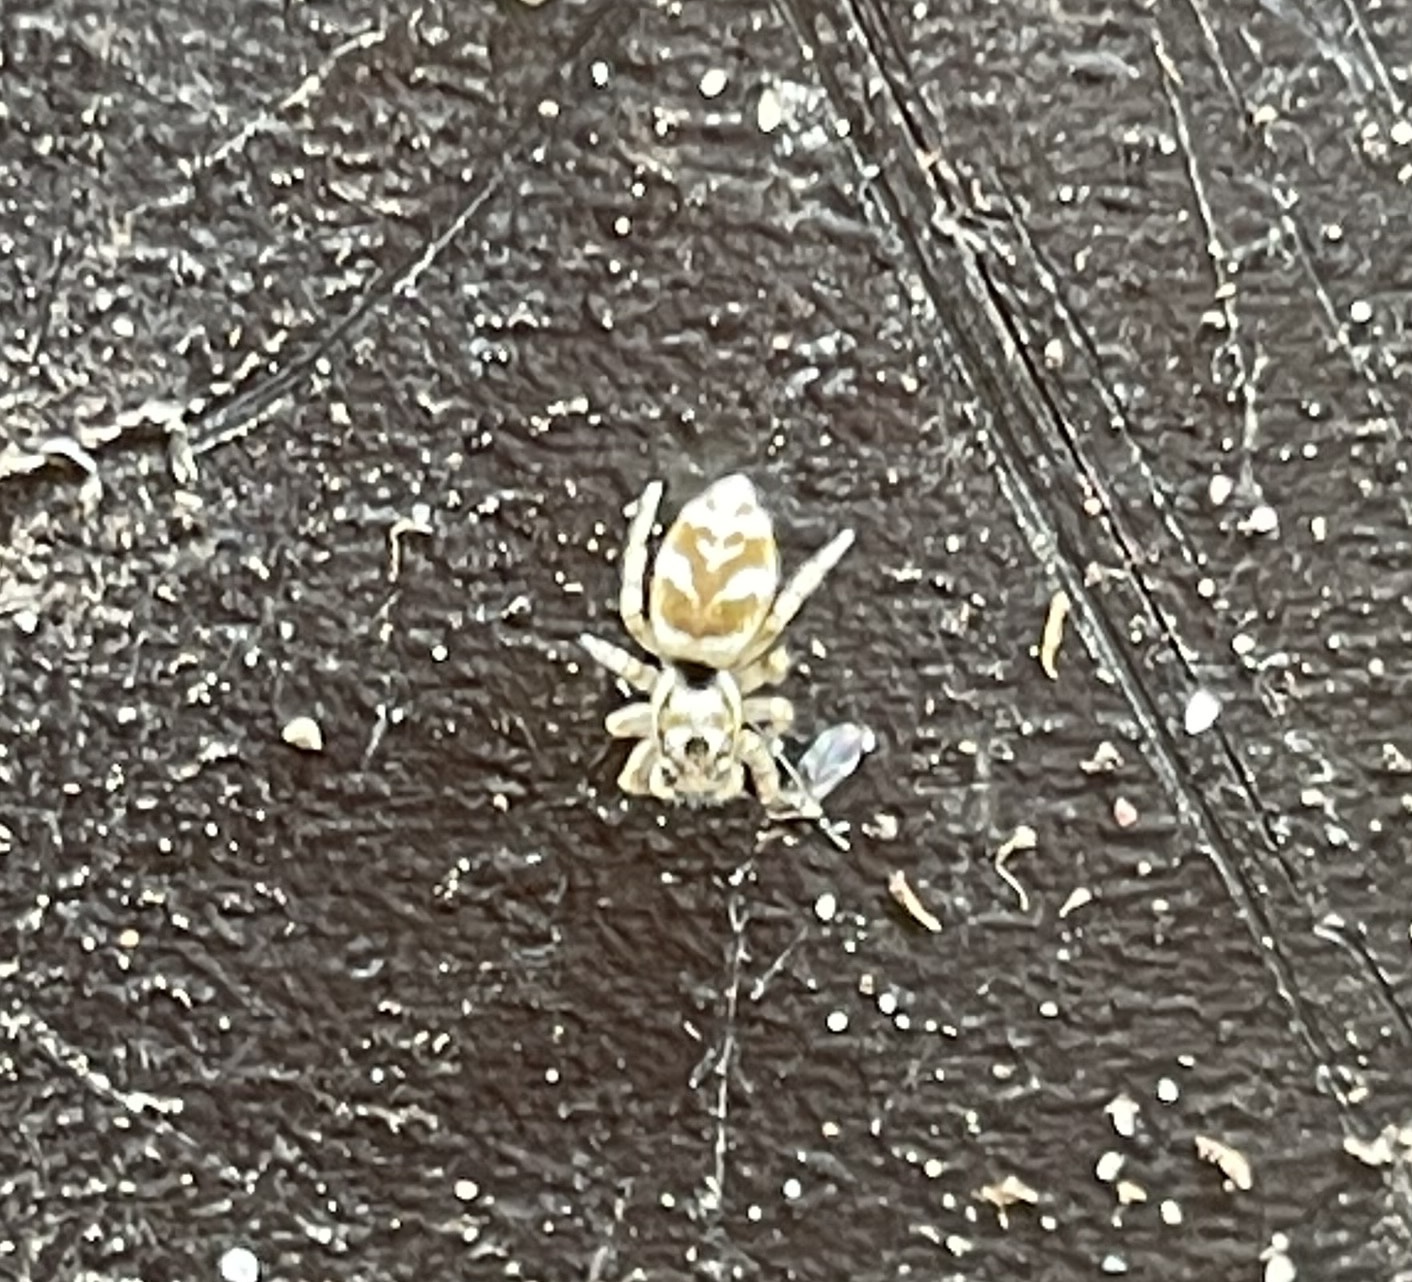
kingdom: Animalia
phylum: Arthropoda
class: Arachnida
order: Araneae
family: Salticidae
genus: Salticus
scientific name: Salticus scenicus
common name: Zebra jumper
